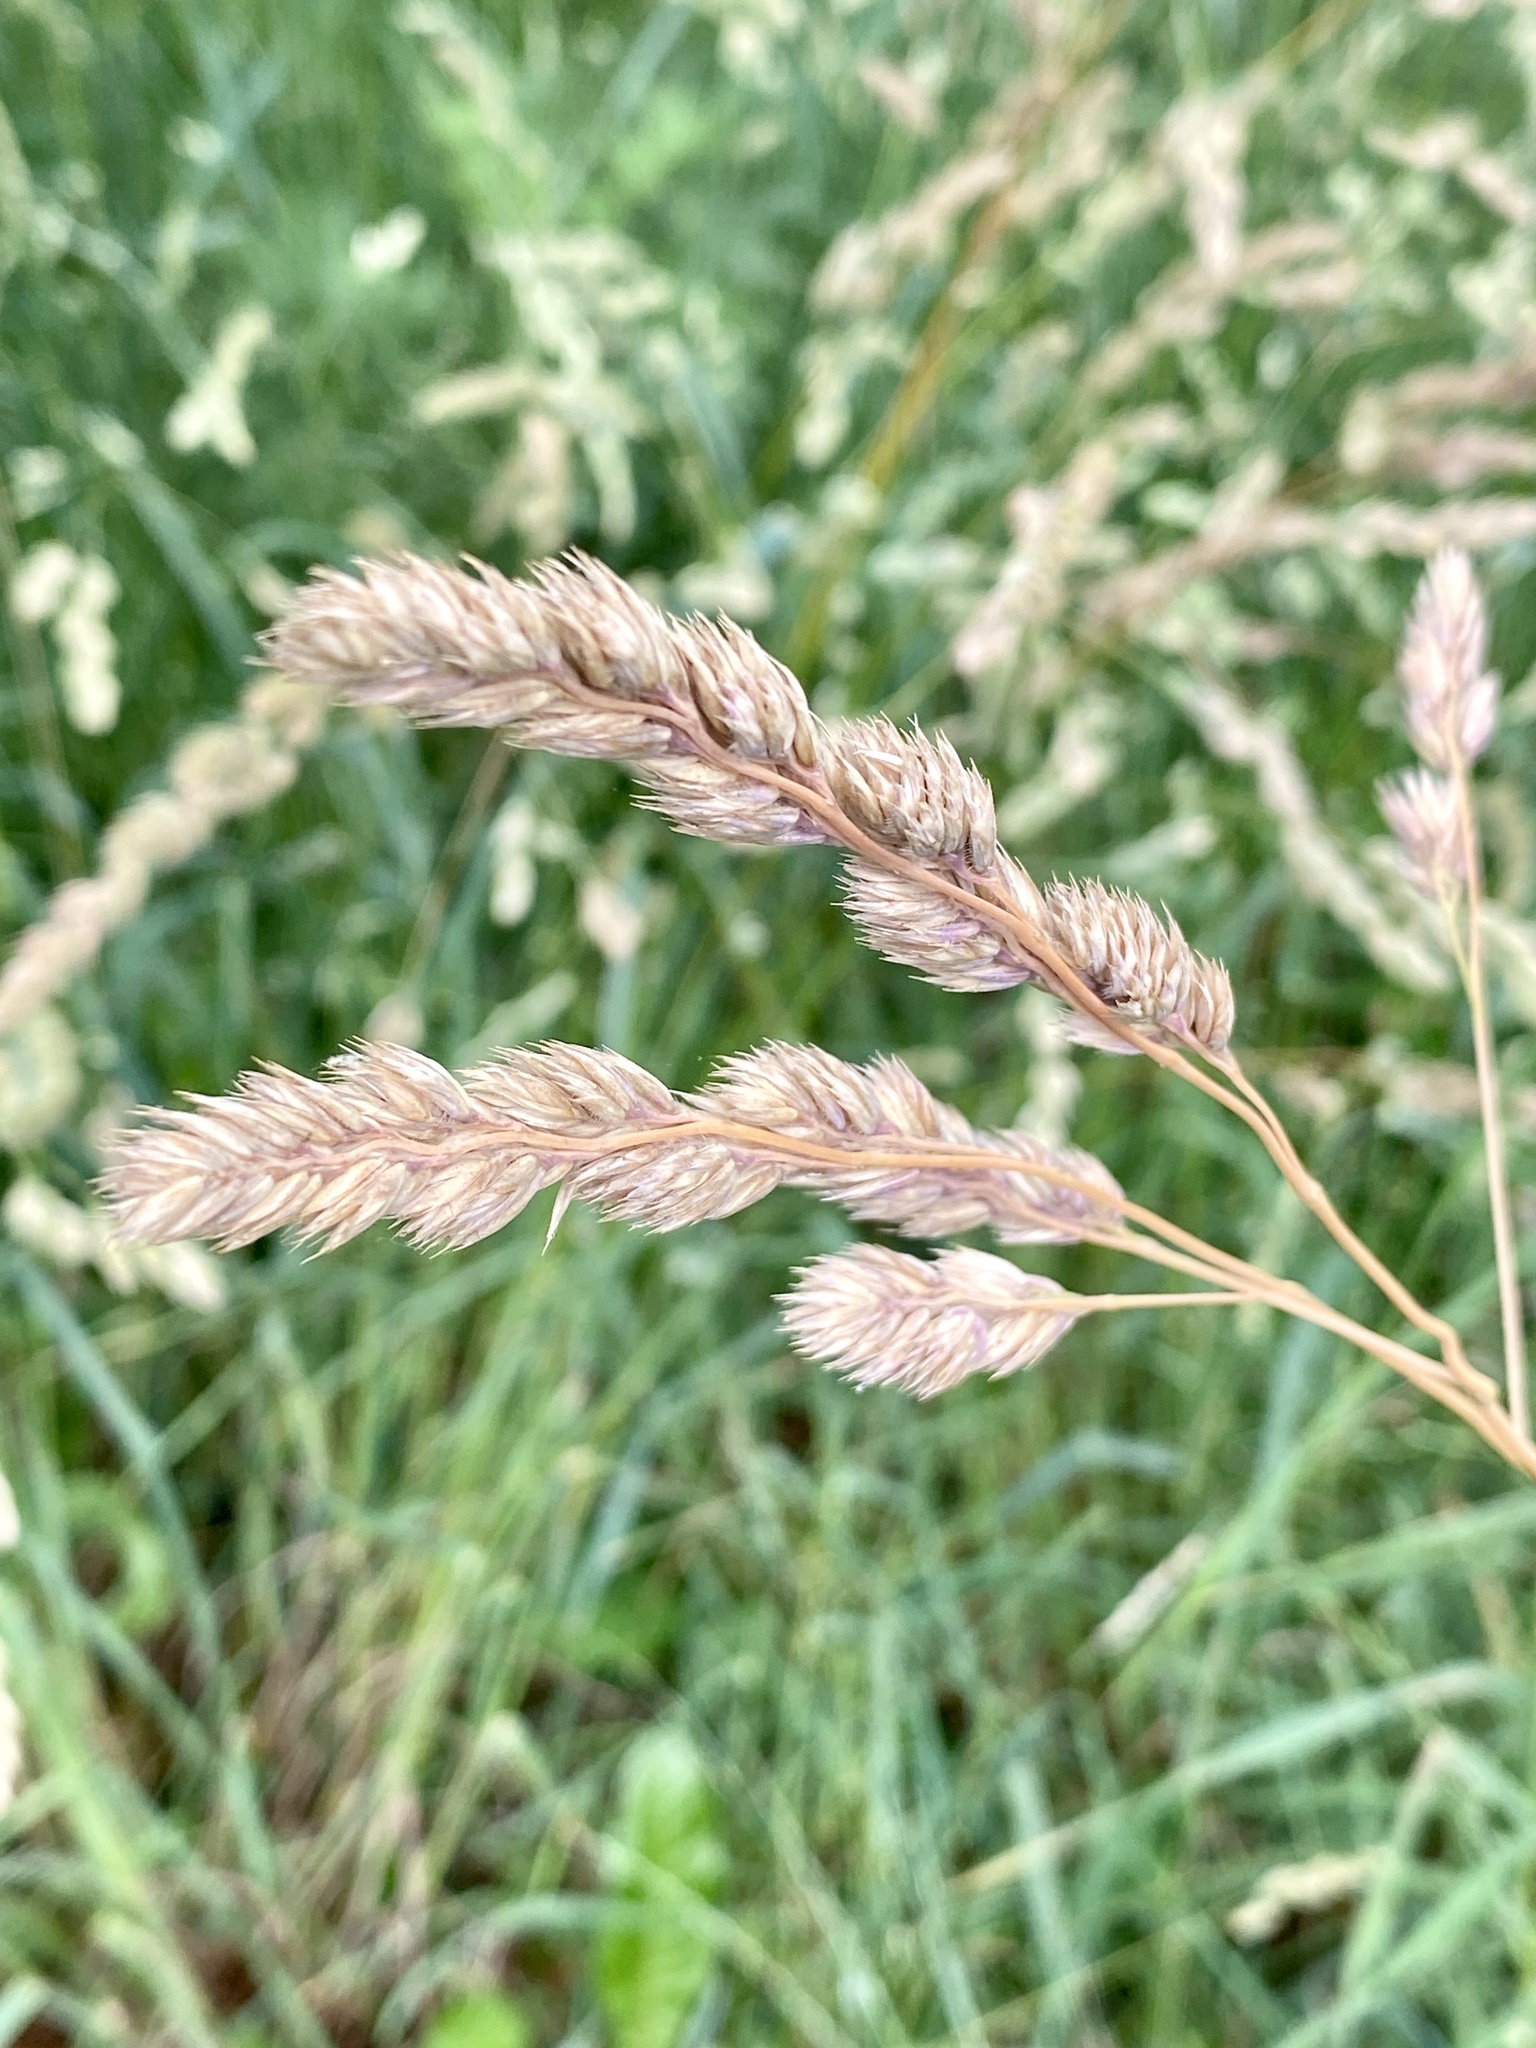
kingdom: Plantae
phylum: Tracheophyta
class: Liliopsida
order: Poales
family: Poaceae
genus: Dactylis
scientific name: Dactylis glomerata
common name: Orchardgrass
